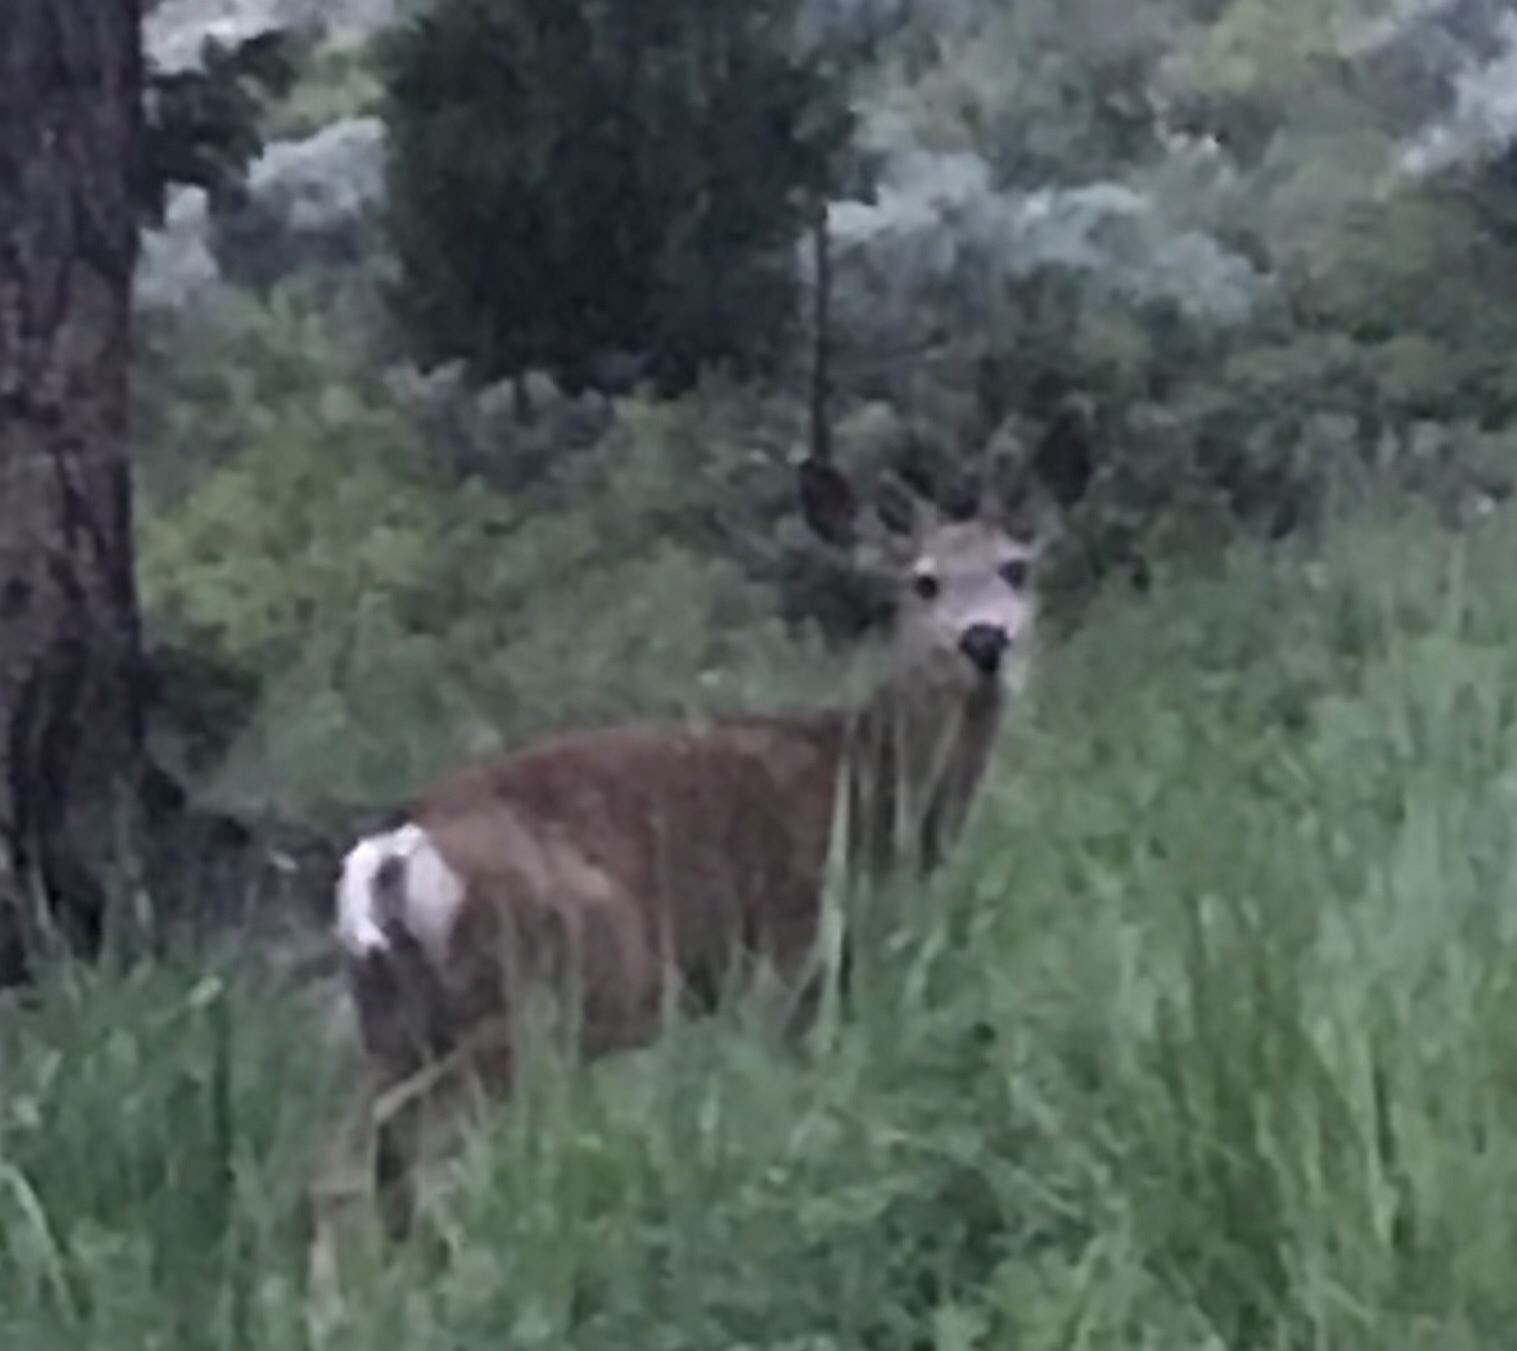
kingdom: Animalia
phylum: Chordata
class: Mammalia
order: Artiodactyla
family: Cervidae
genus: Odocoileus
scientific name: Odocoileus hemionus
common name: Mule deer
